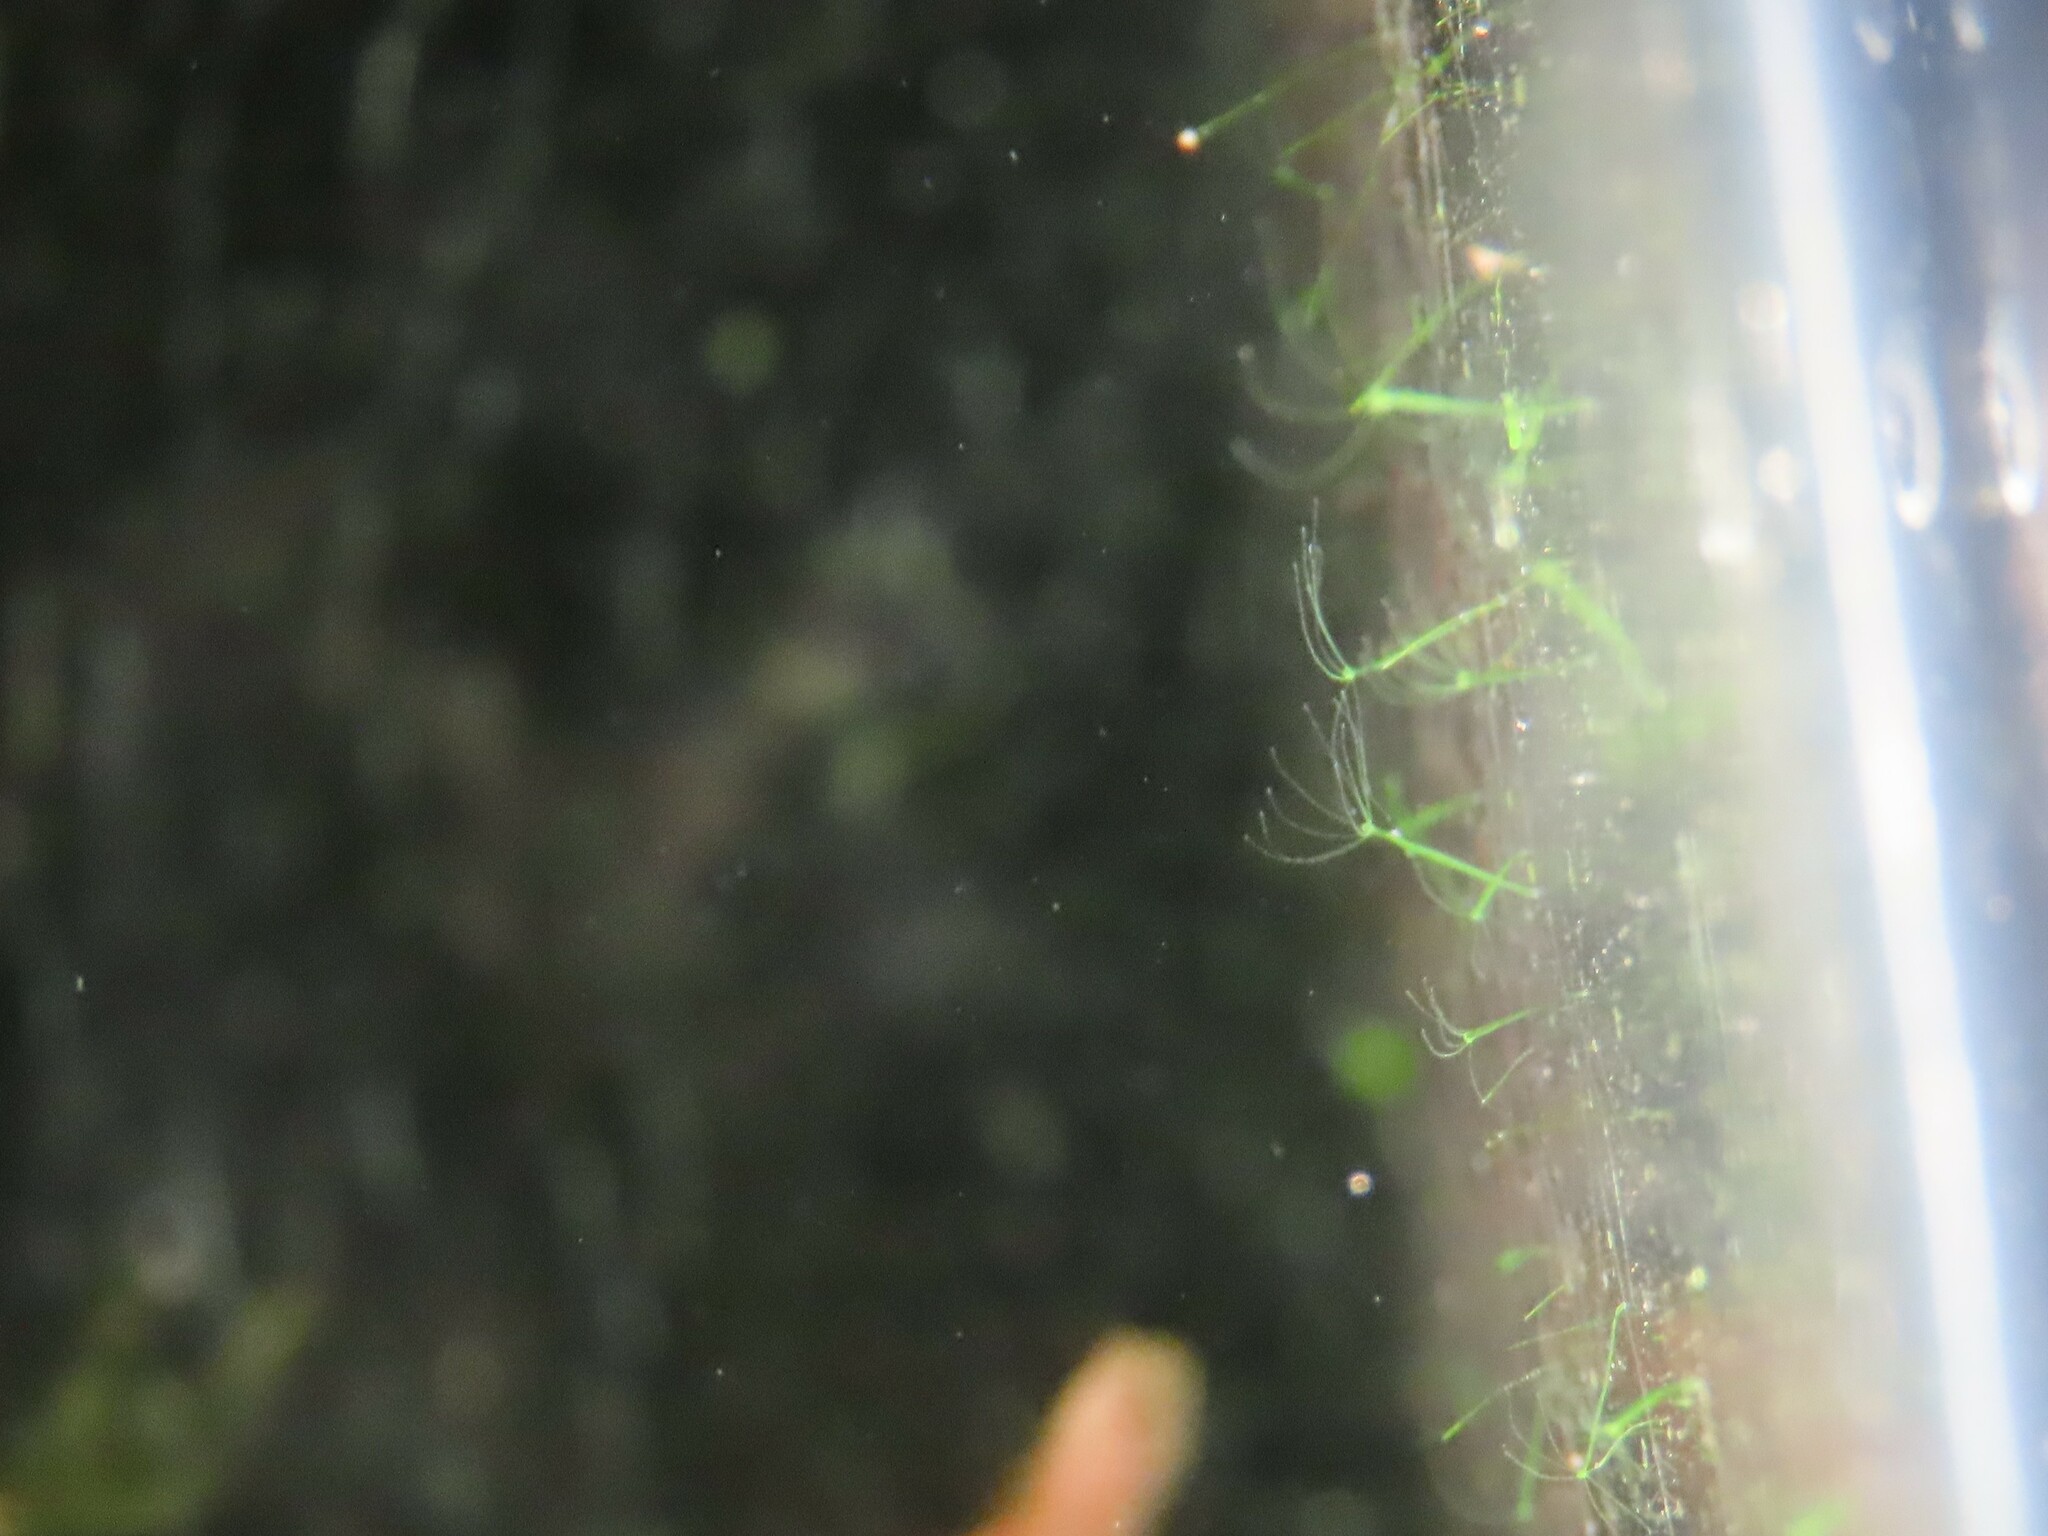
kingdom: Animalia
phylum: Cnidaria
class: Hydrozoa
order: Anthoathecata
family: Hydridae
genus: Hydra
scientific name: Hydra viridissima
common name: Green hydra
